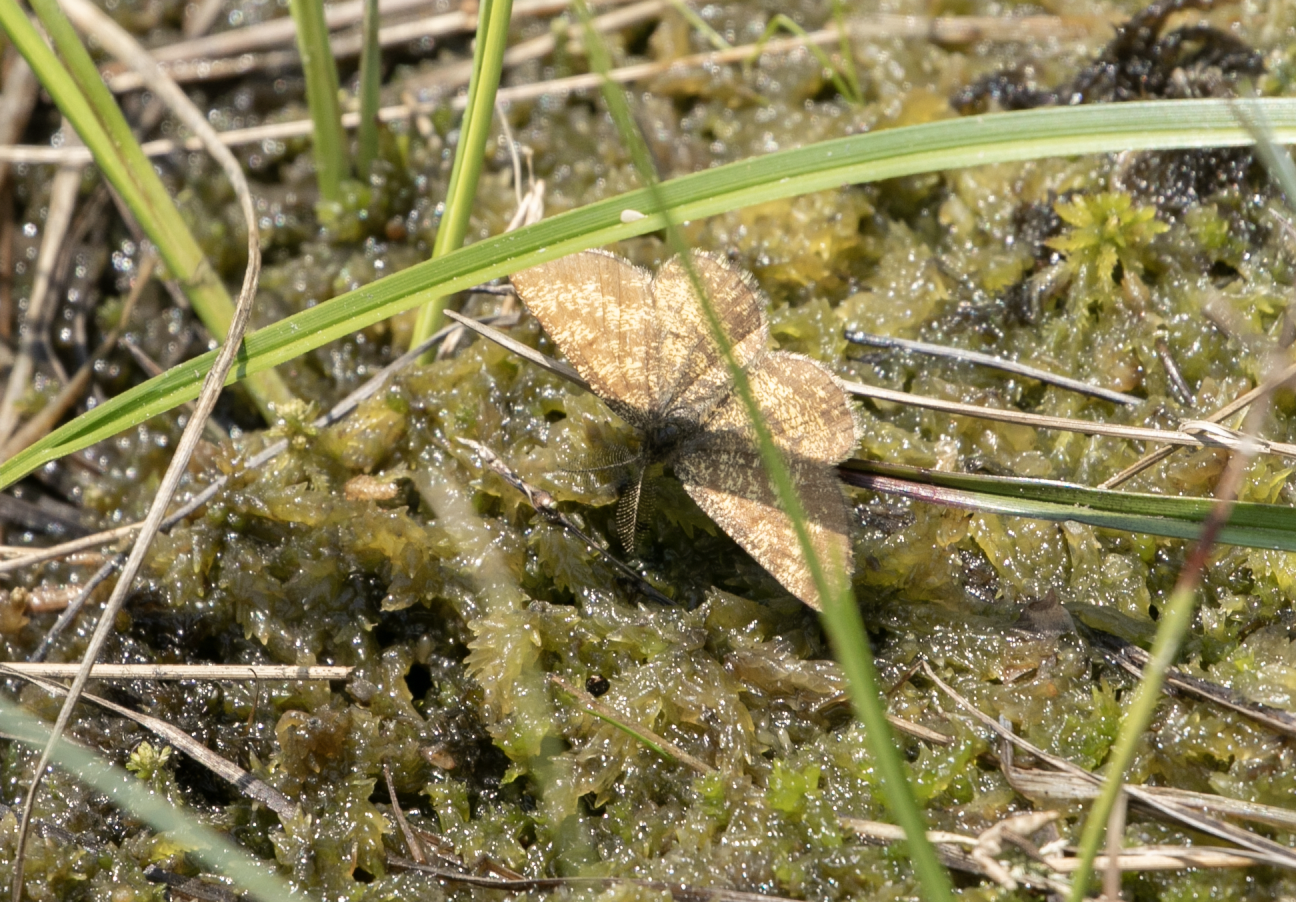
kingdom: Animalia
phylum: Arthropoda
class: Insecta
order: Lepidoptera
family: Geometridae
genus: Ematurga
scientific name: Ematurga atomaria
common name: Common heath
